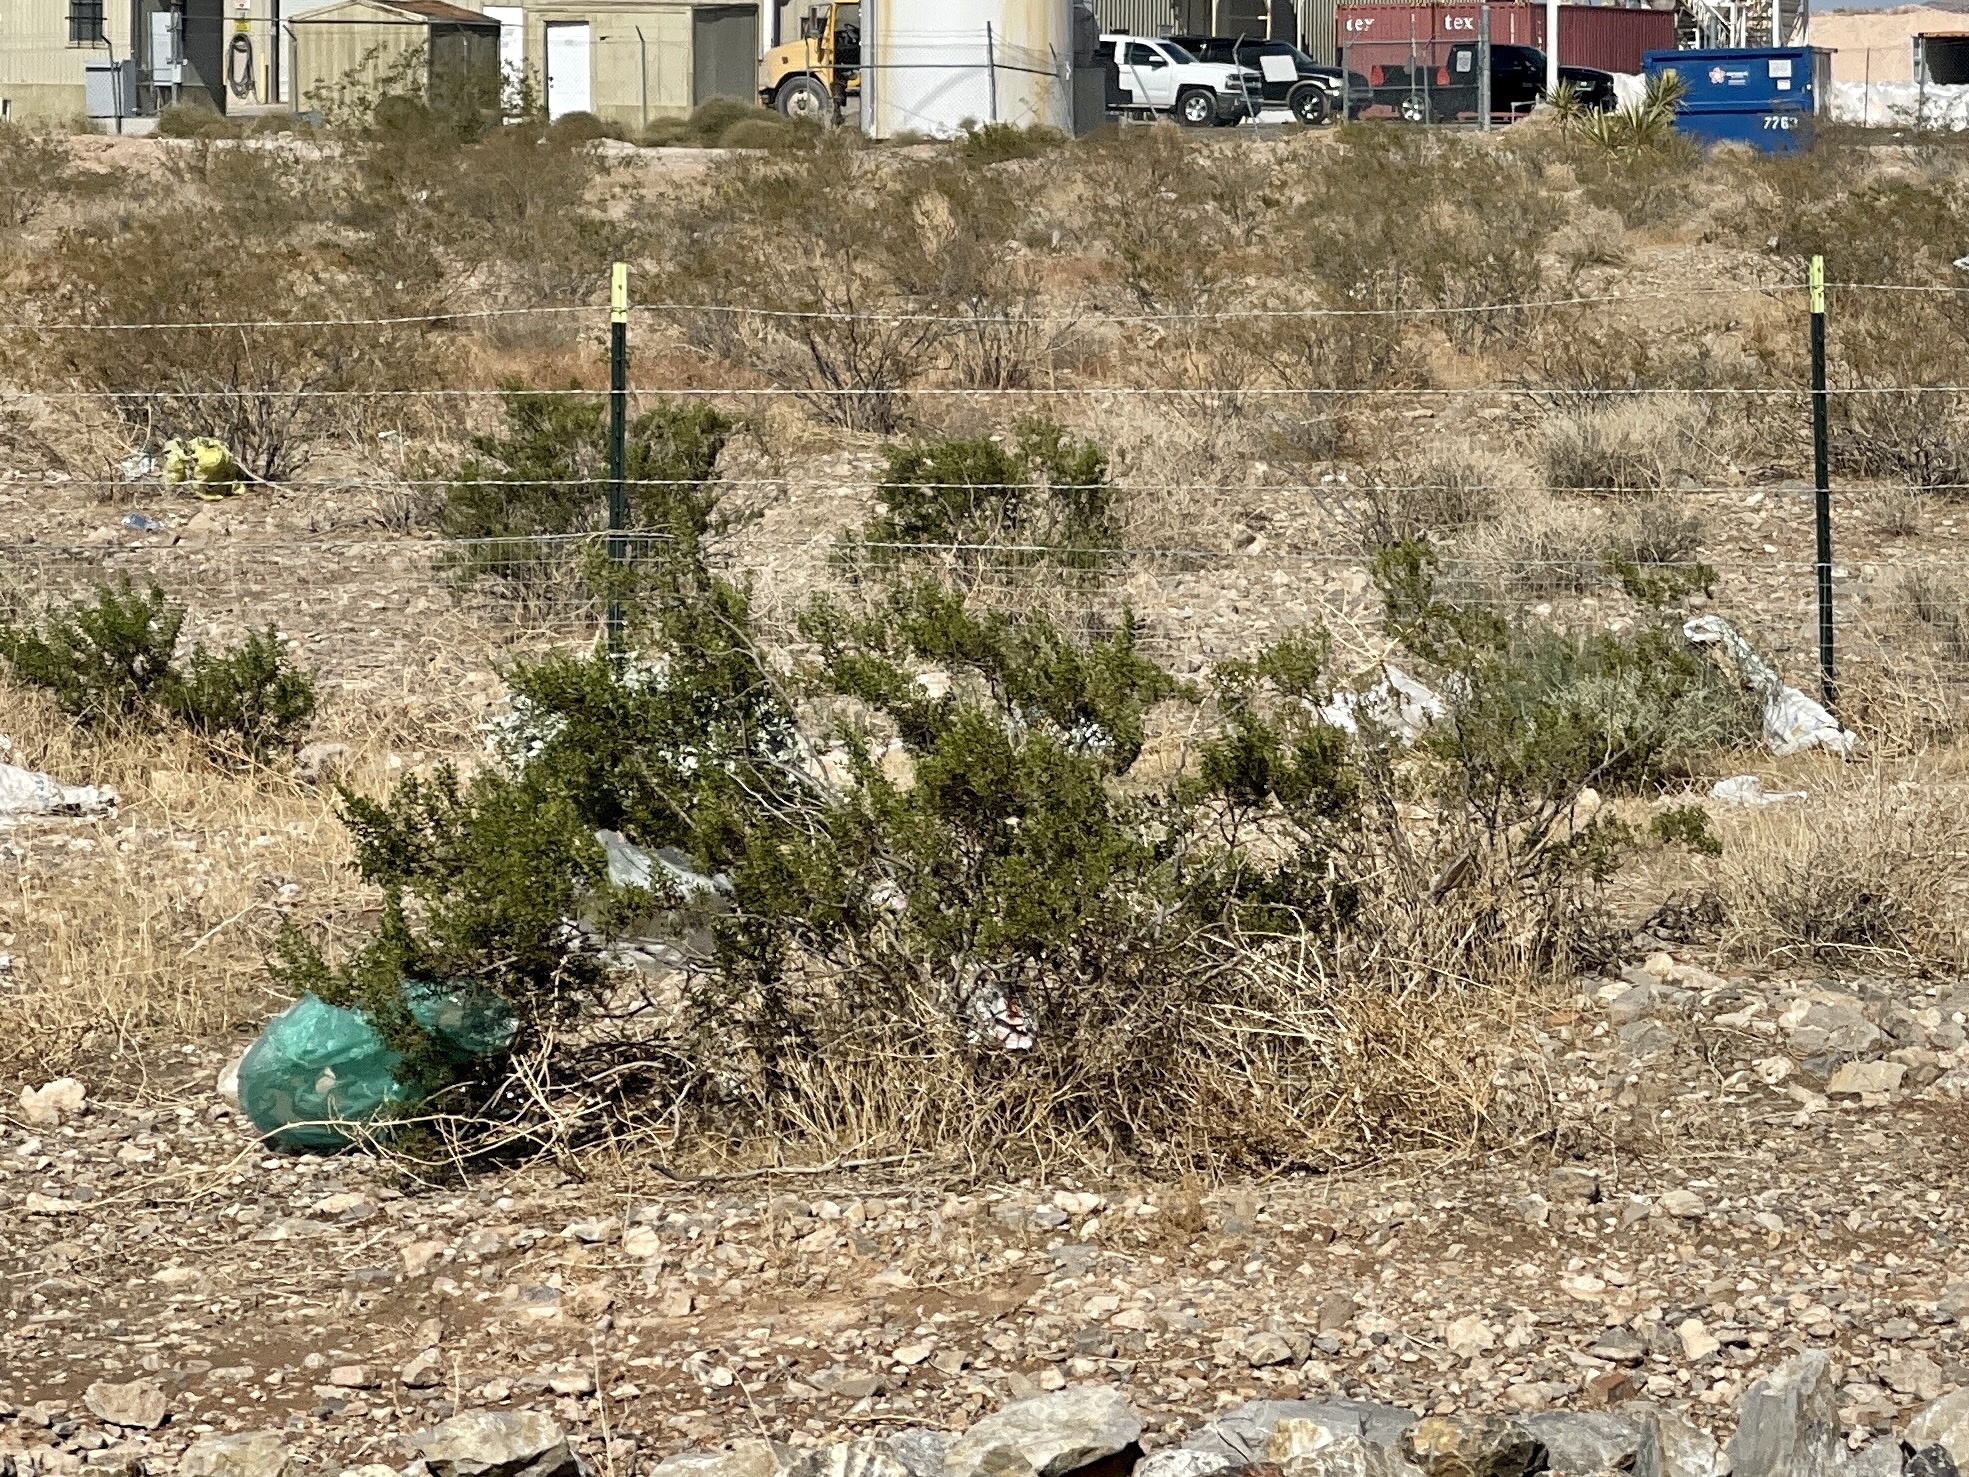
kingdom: Plantae
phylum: Tracheophyta
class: Magnoliopsida
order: Zygophyllales
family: Zygophyllaceae
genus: Larrea
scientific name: Larrea tridentata
